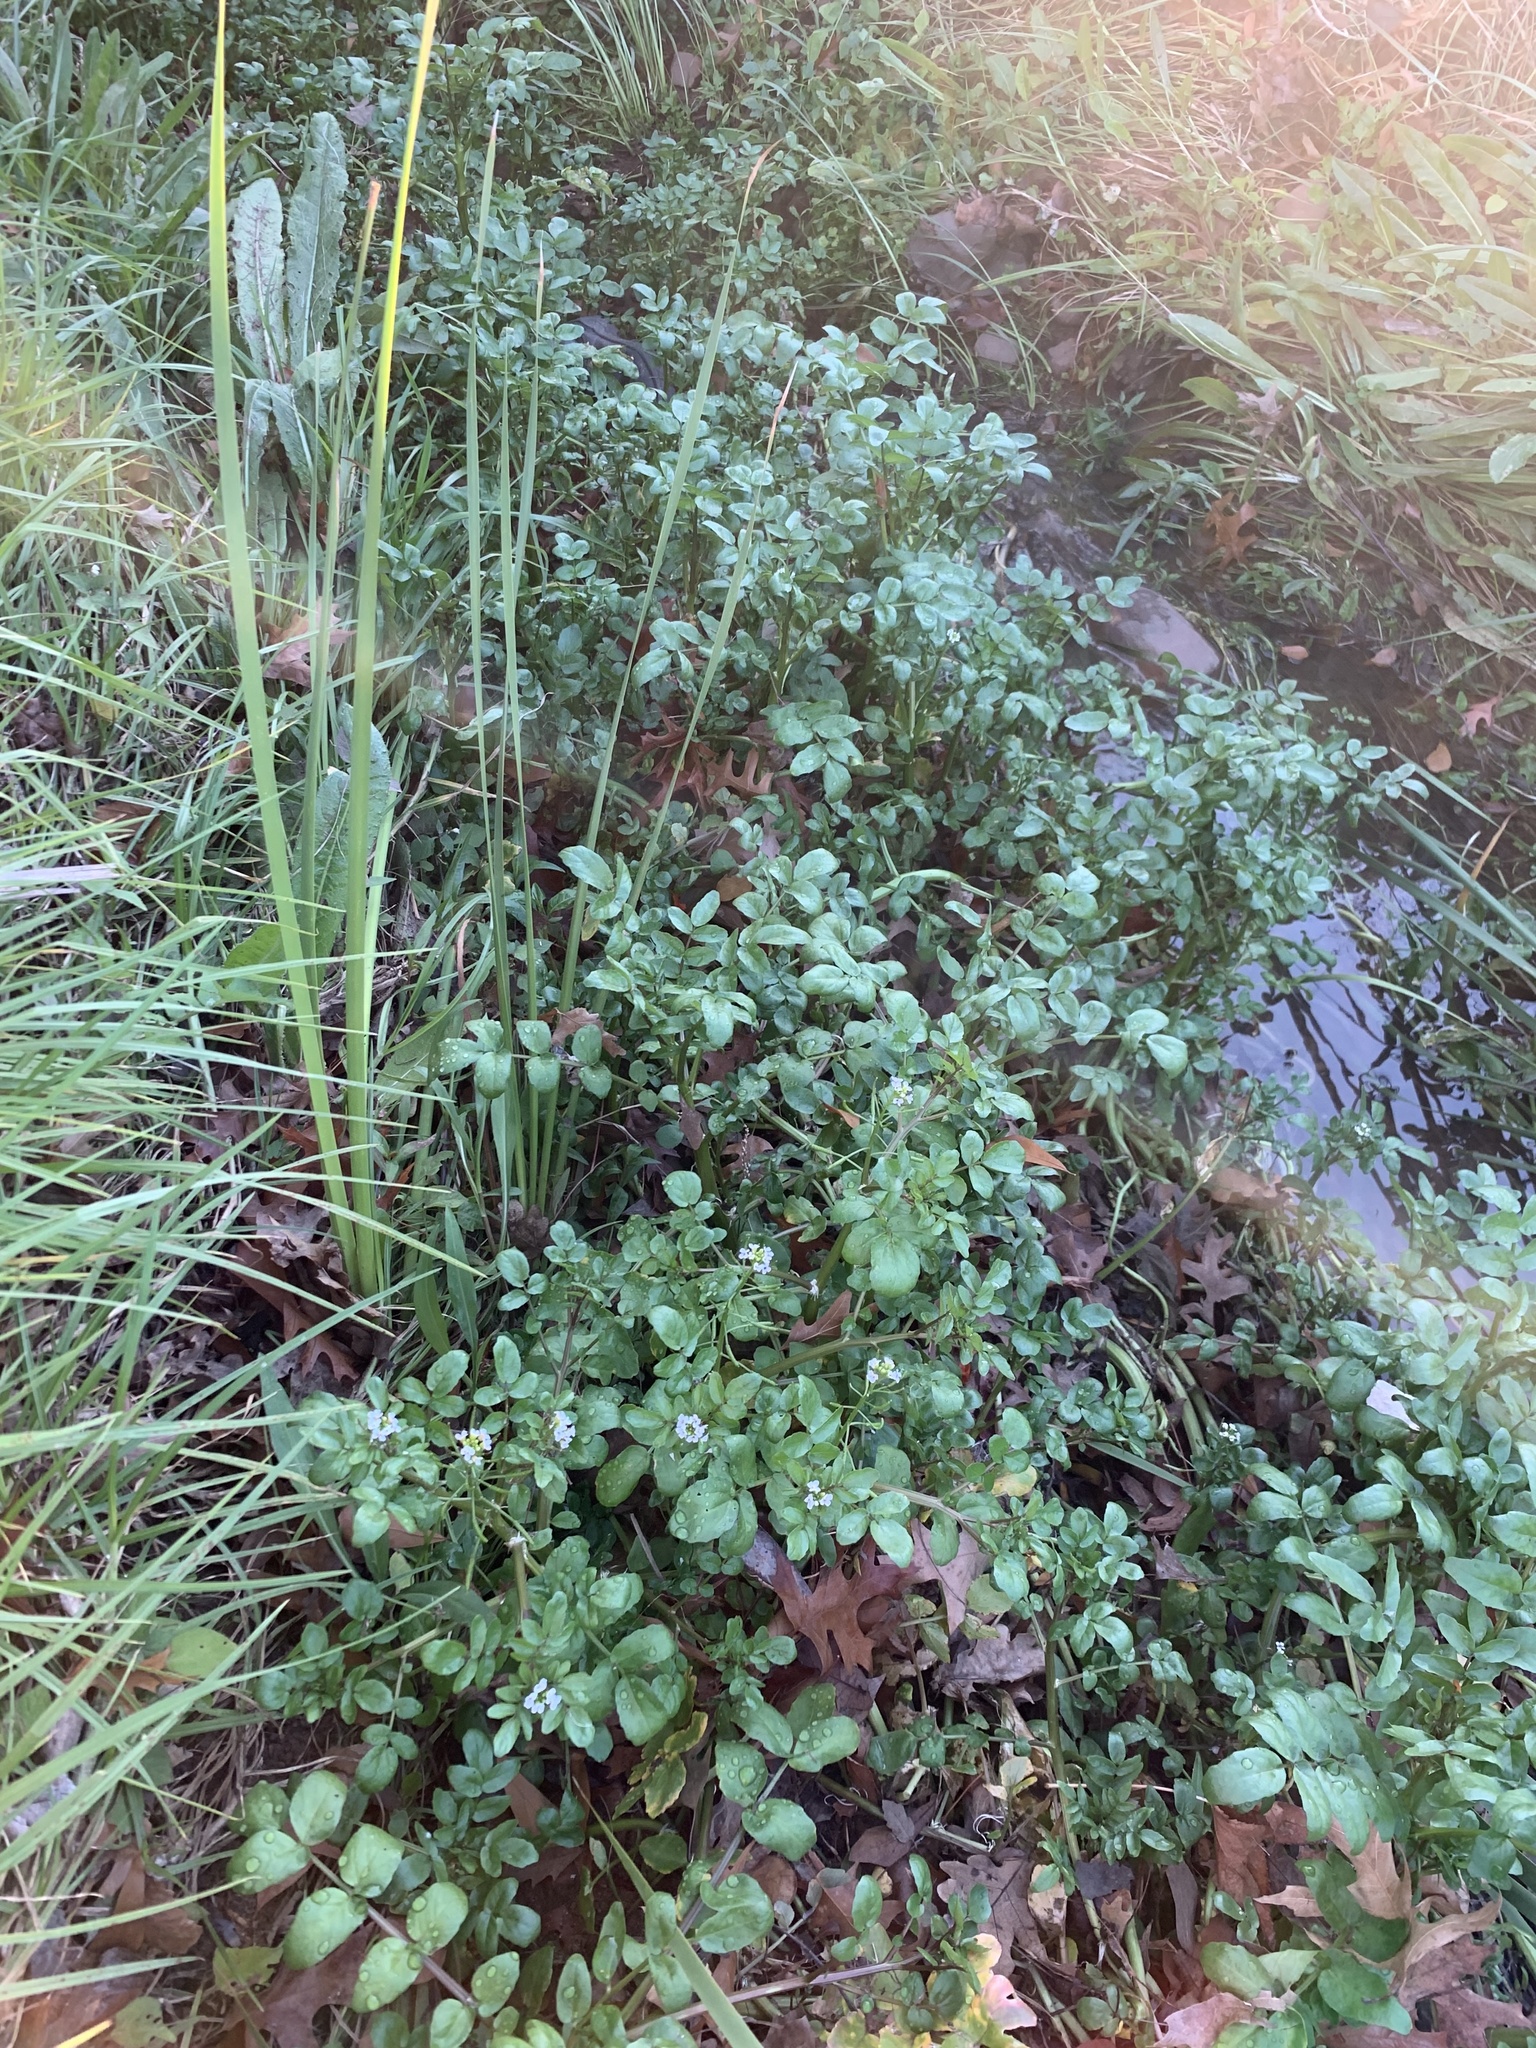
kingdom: Plantae
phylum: Tracheophyta
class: Magnoliopsida
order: Brassicales
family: Brassicaceae
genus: Nasturtium
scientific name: Nasturtium officinale
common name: Watercress
